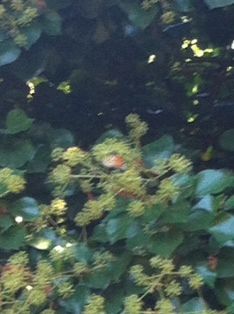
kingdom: Animalia
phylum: Arthropoda
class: Insecta
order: Lepidoptera
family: Nymphalidae
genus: Danaus
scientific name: Danaus plexippus
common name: Monarch
